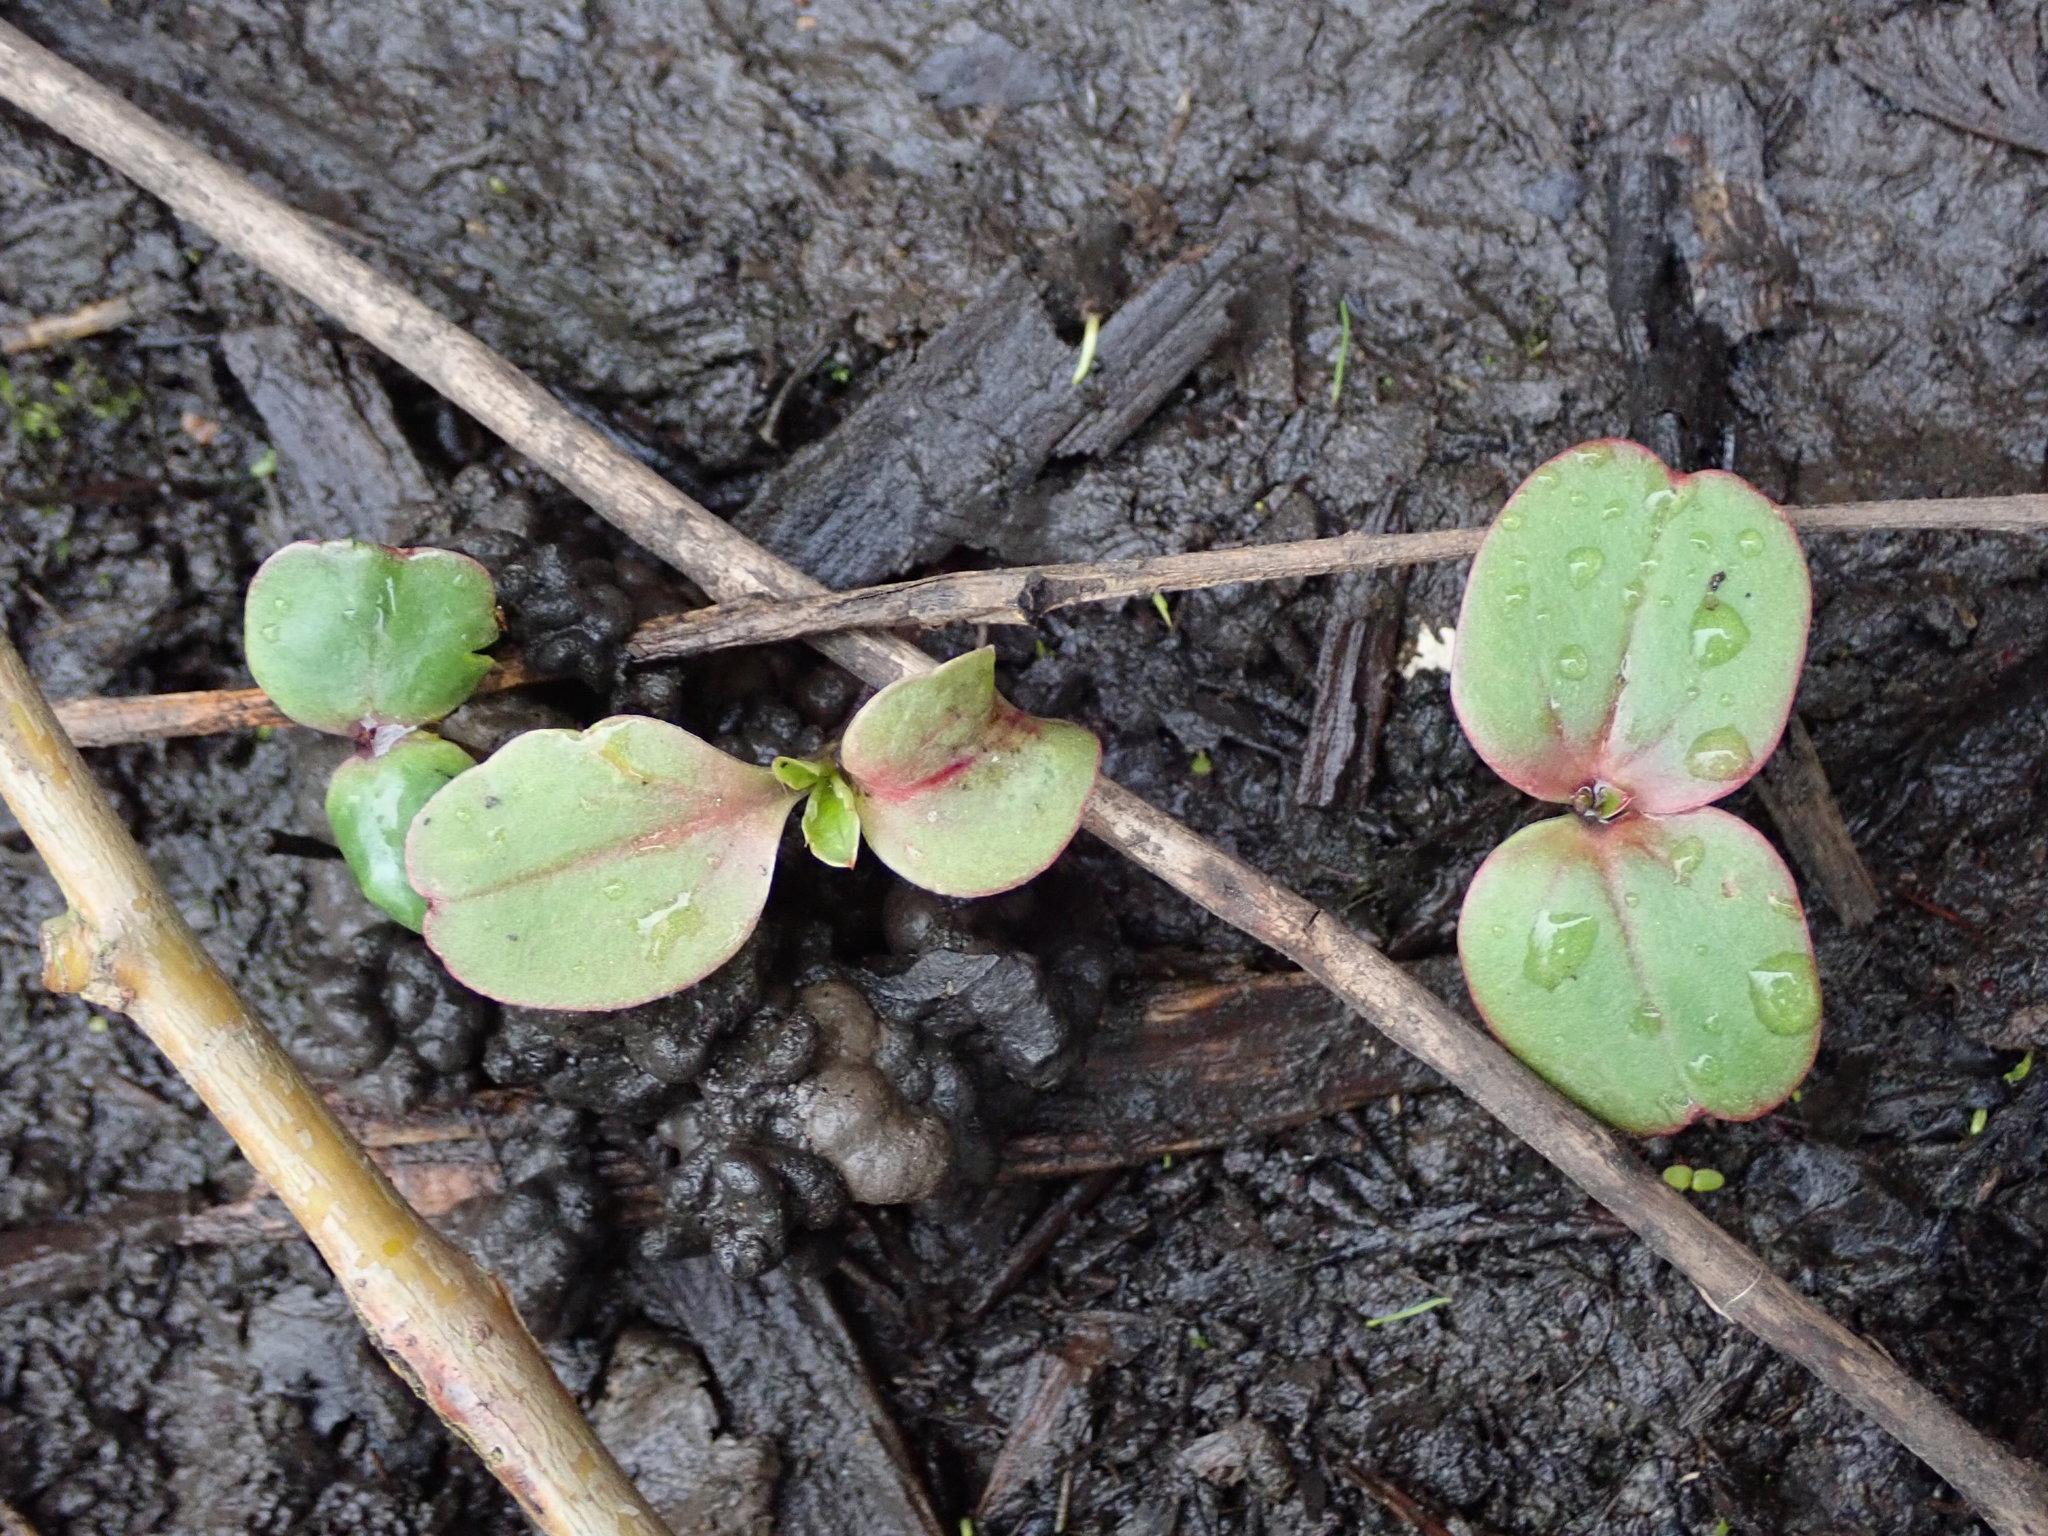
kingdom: Plantae
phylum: Tracheophyta
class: Magnoliopsida
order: Ericales
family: Balsaminaceae
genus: Impatiens
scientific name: Impatiens glandulifera
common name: Himalayan balsam
